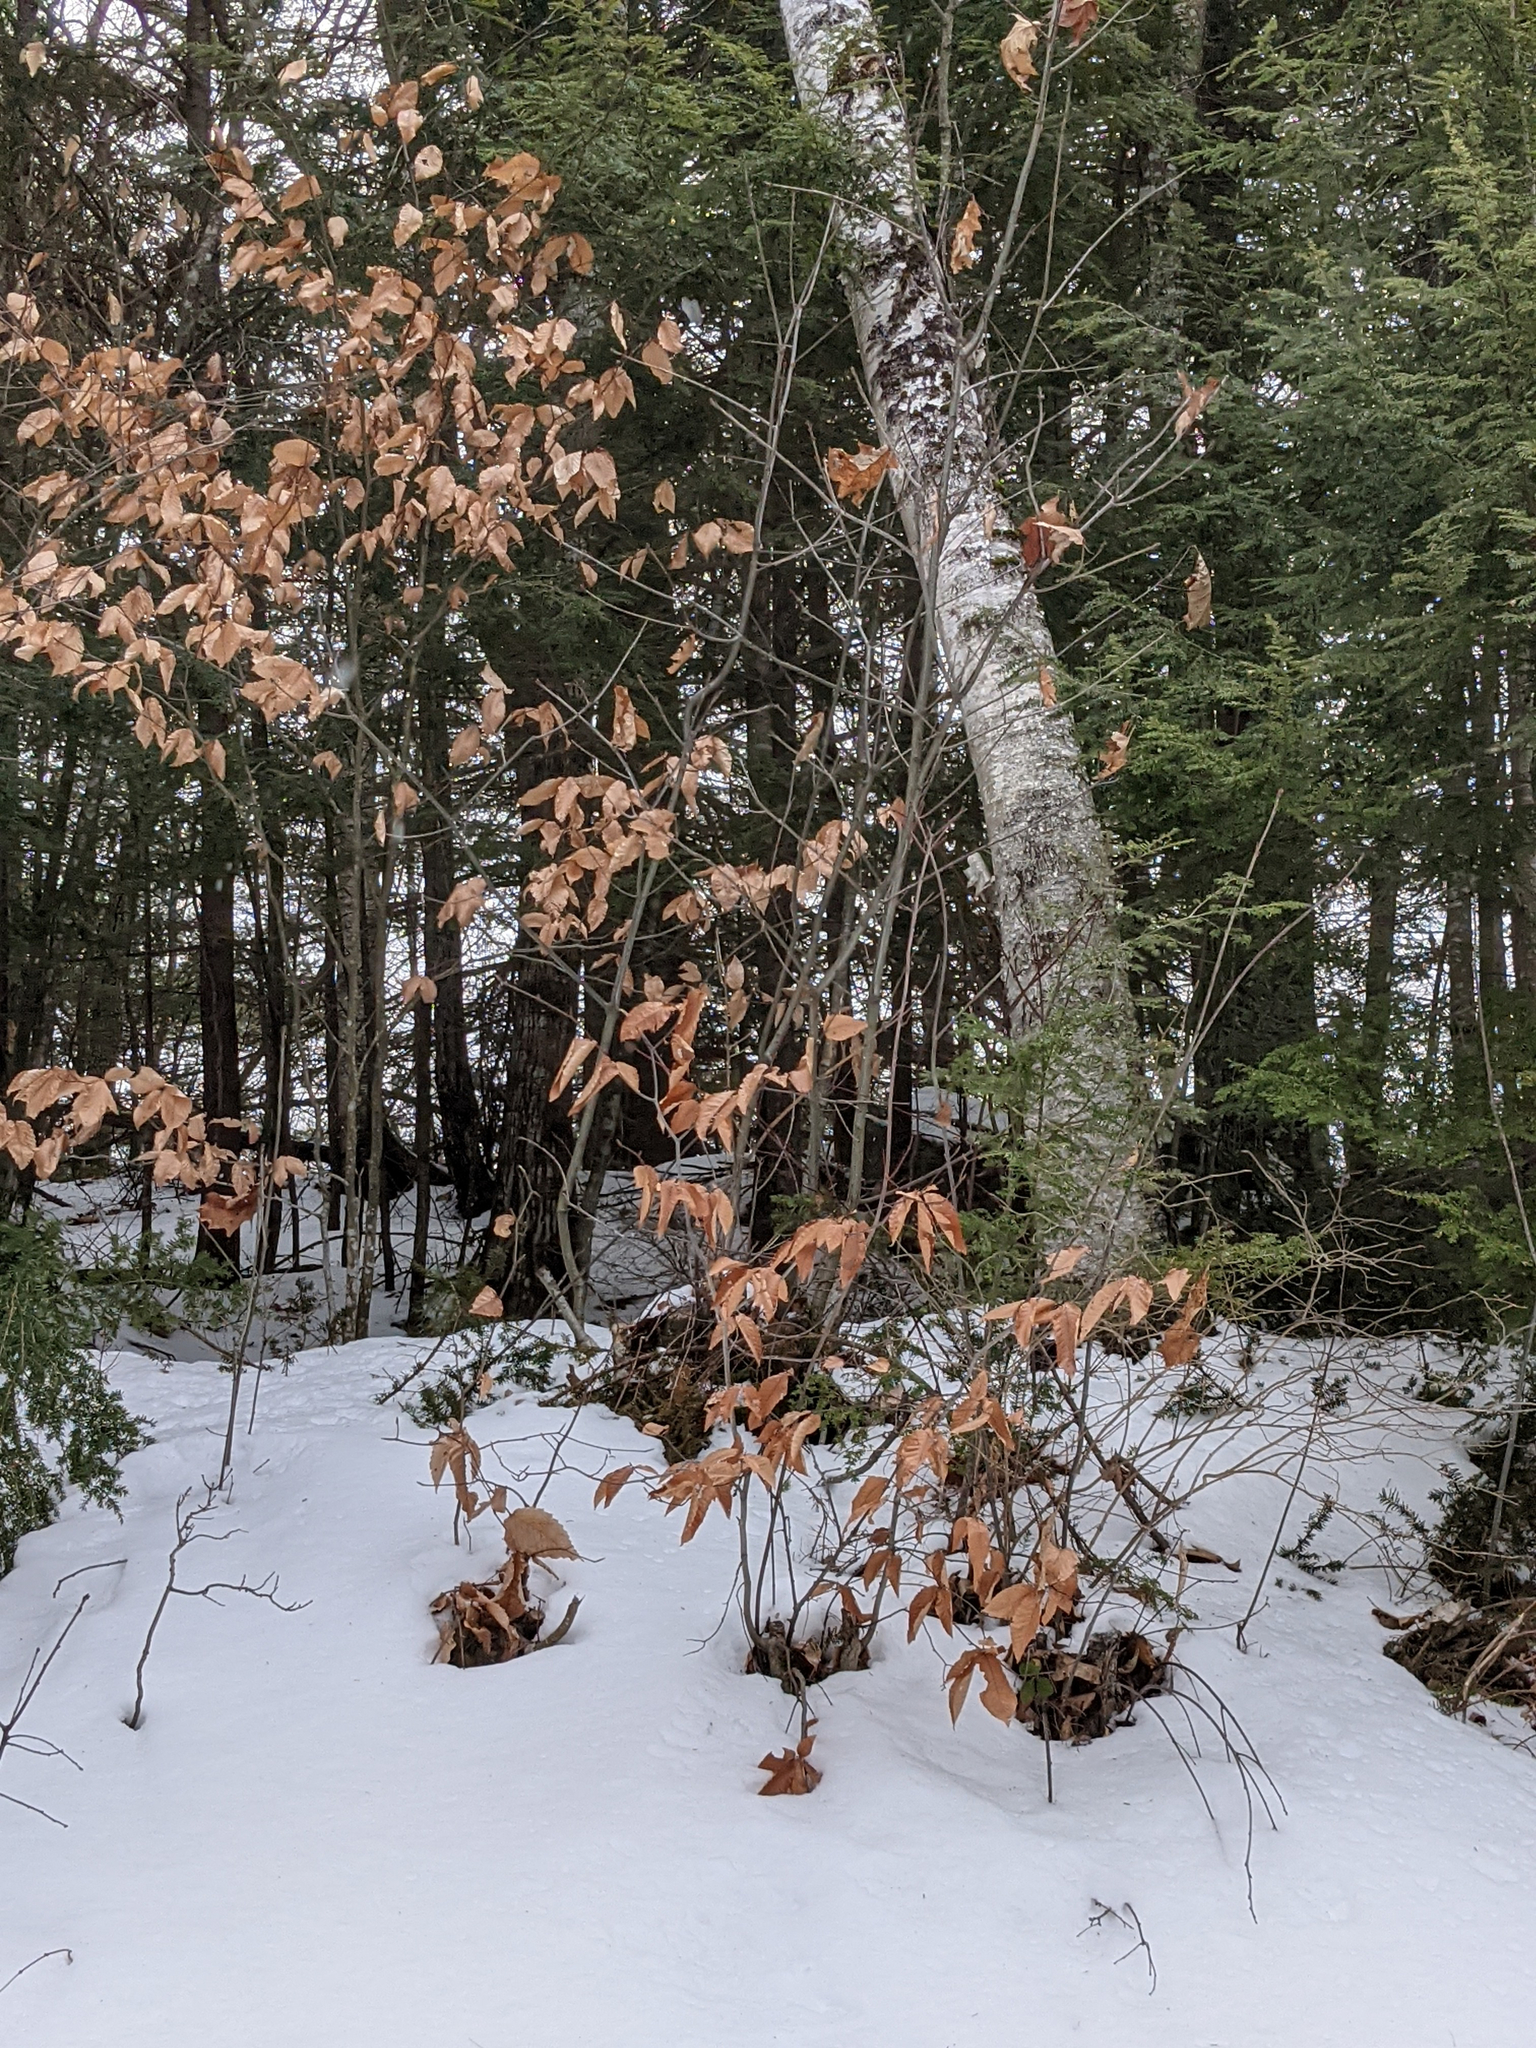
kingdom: Plantae
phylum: Tracheophyta
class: Magnoliopsida
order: Fagales
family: Fagaceae
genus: Fagus
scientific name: Fagus grandifolia
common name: American beech
